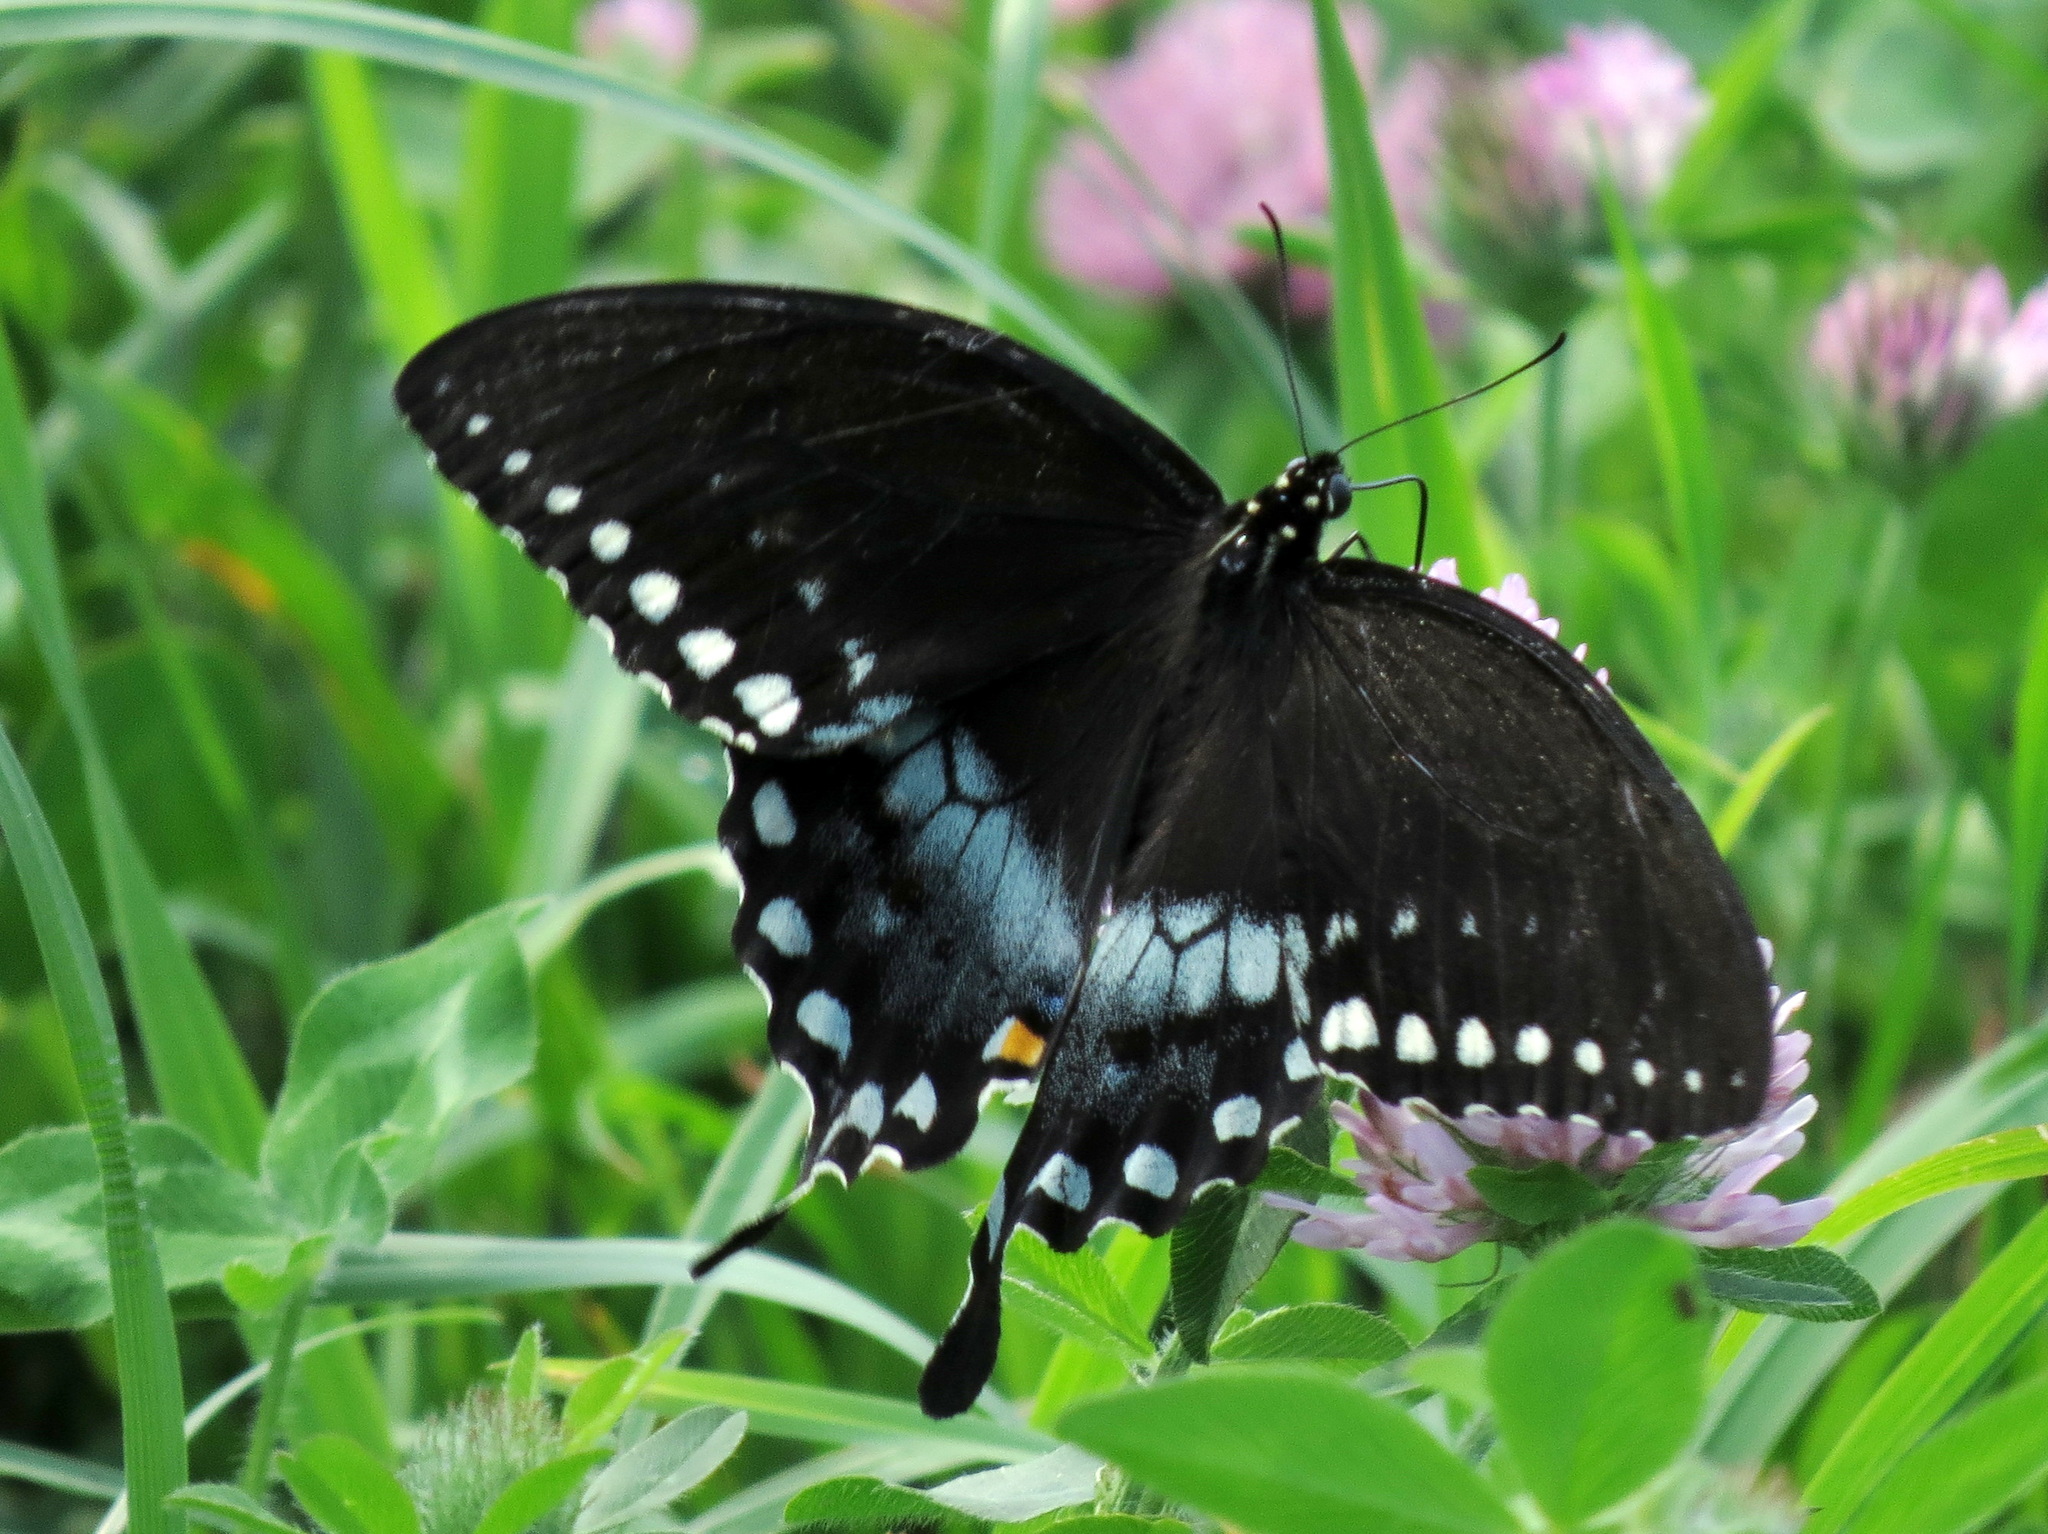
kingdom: Animalia
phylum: Arthropoda
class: Insecta
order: Lepidoptera
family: Papilionidae
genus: Papilio
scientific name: Papilio troilus
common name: Spicebush swallowtail
